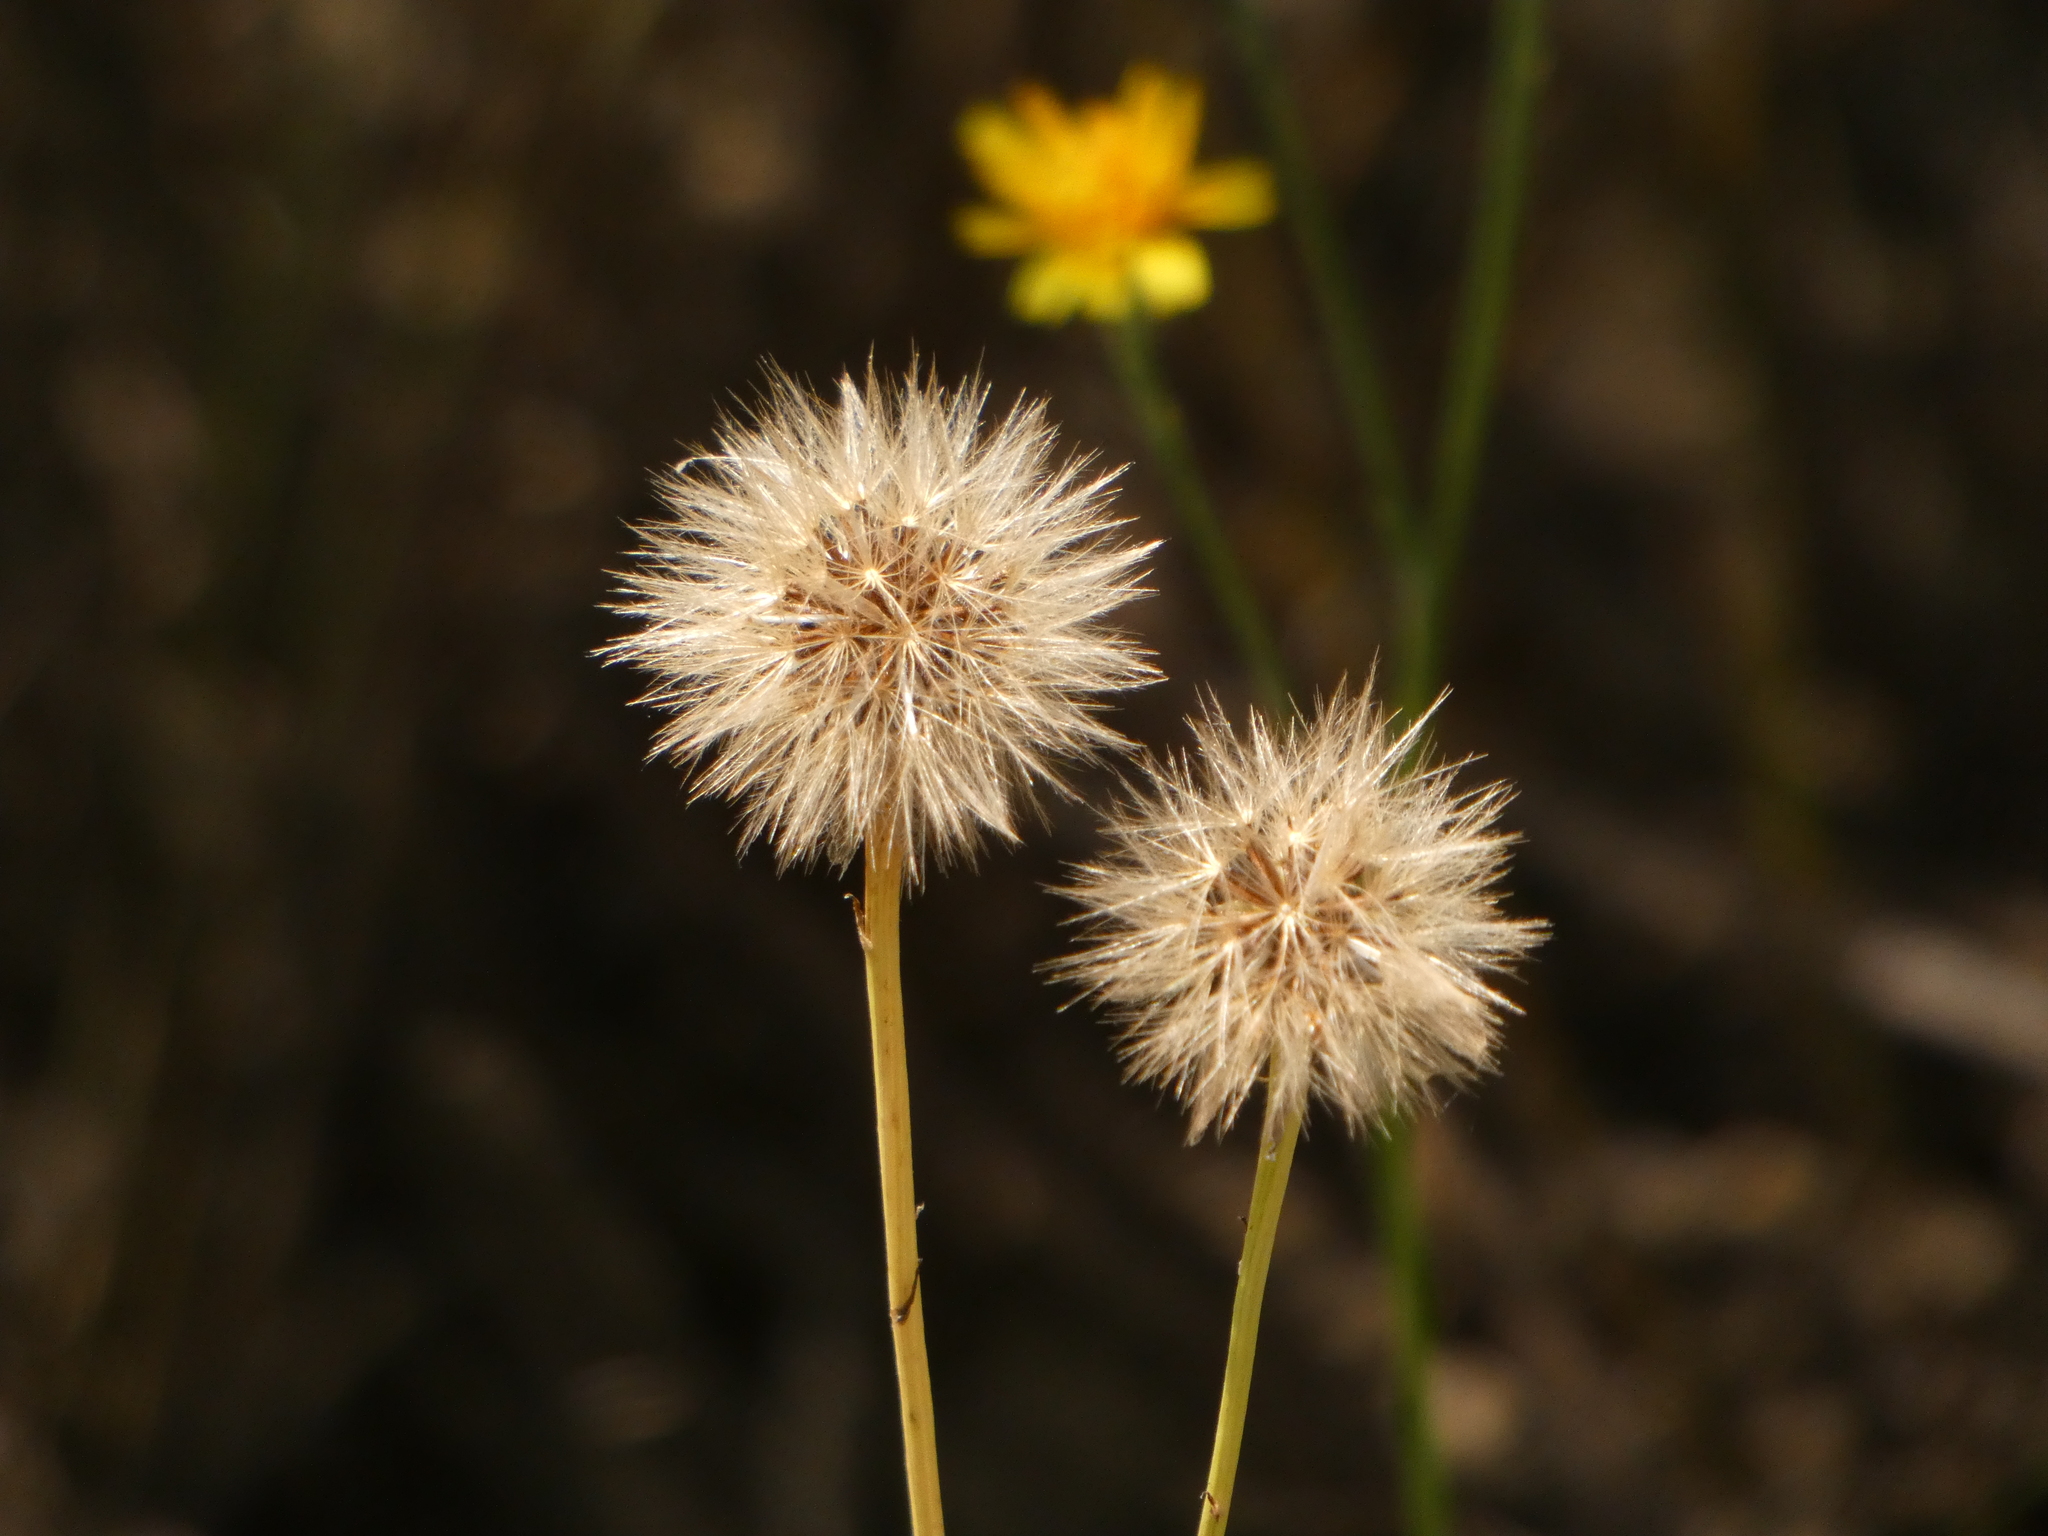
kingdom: Plantae
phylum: Tracheophyta
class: Magnoliopsida
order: Asterales
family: Asteraceae
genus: Scorzoneroides
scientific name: Scorzoneroides autumnalis
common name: Autumn hawkbit
